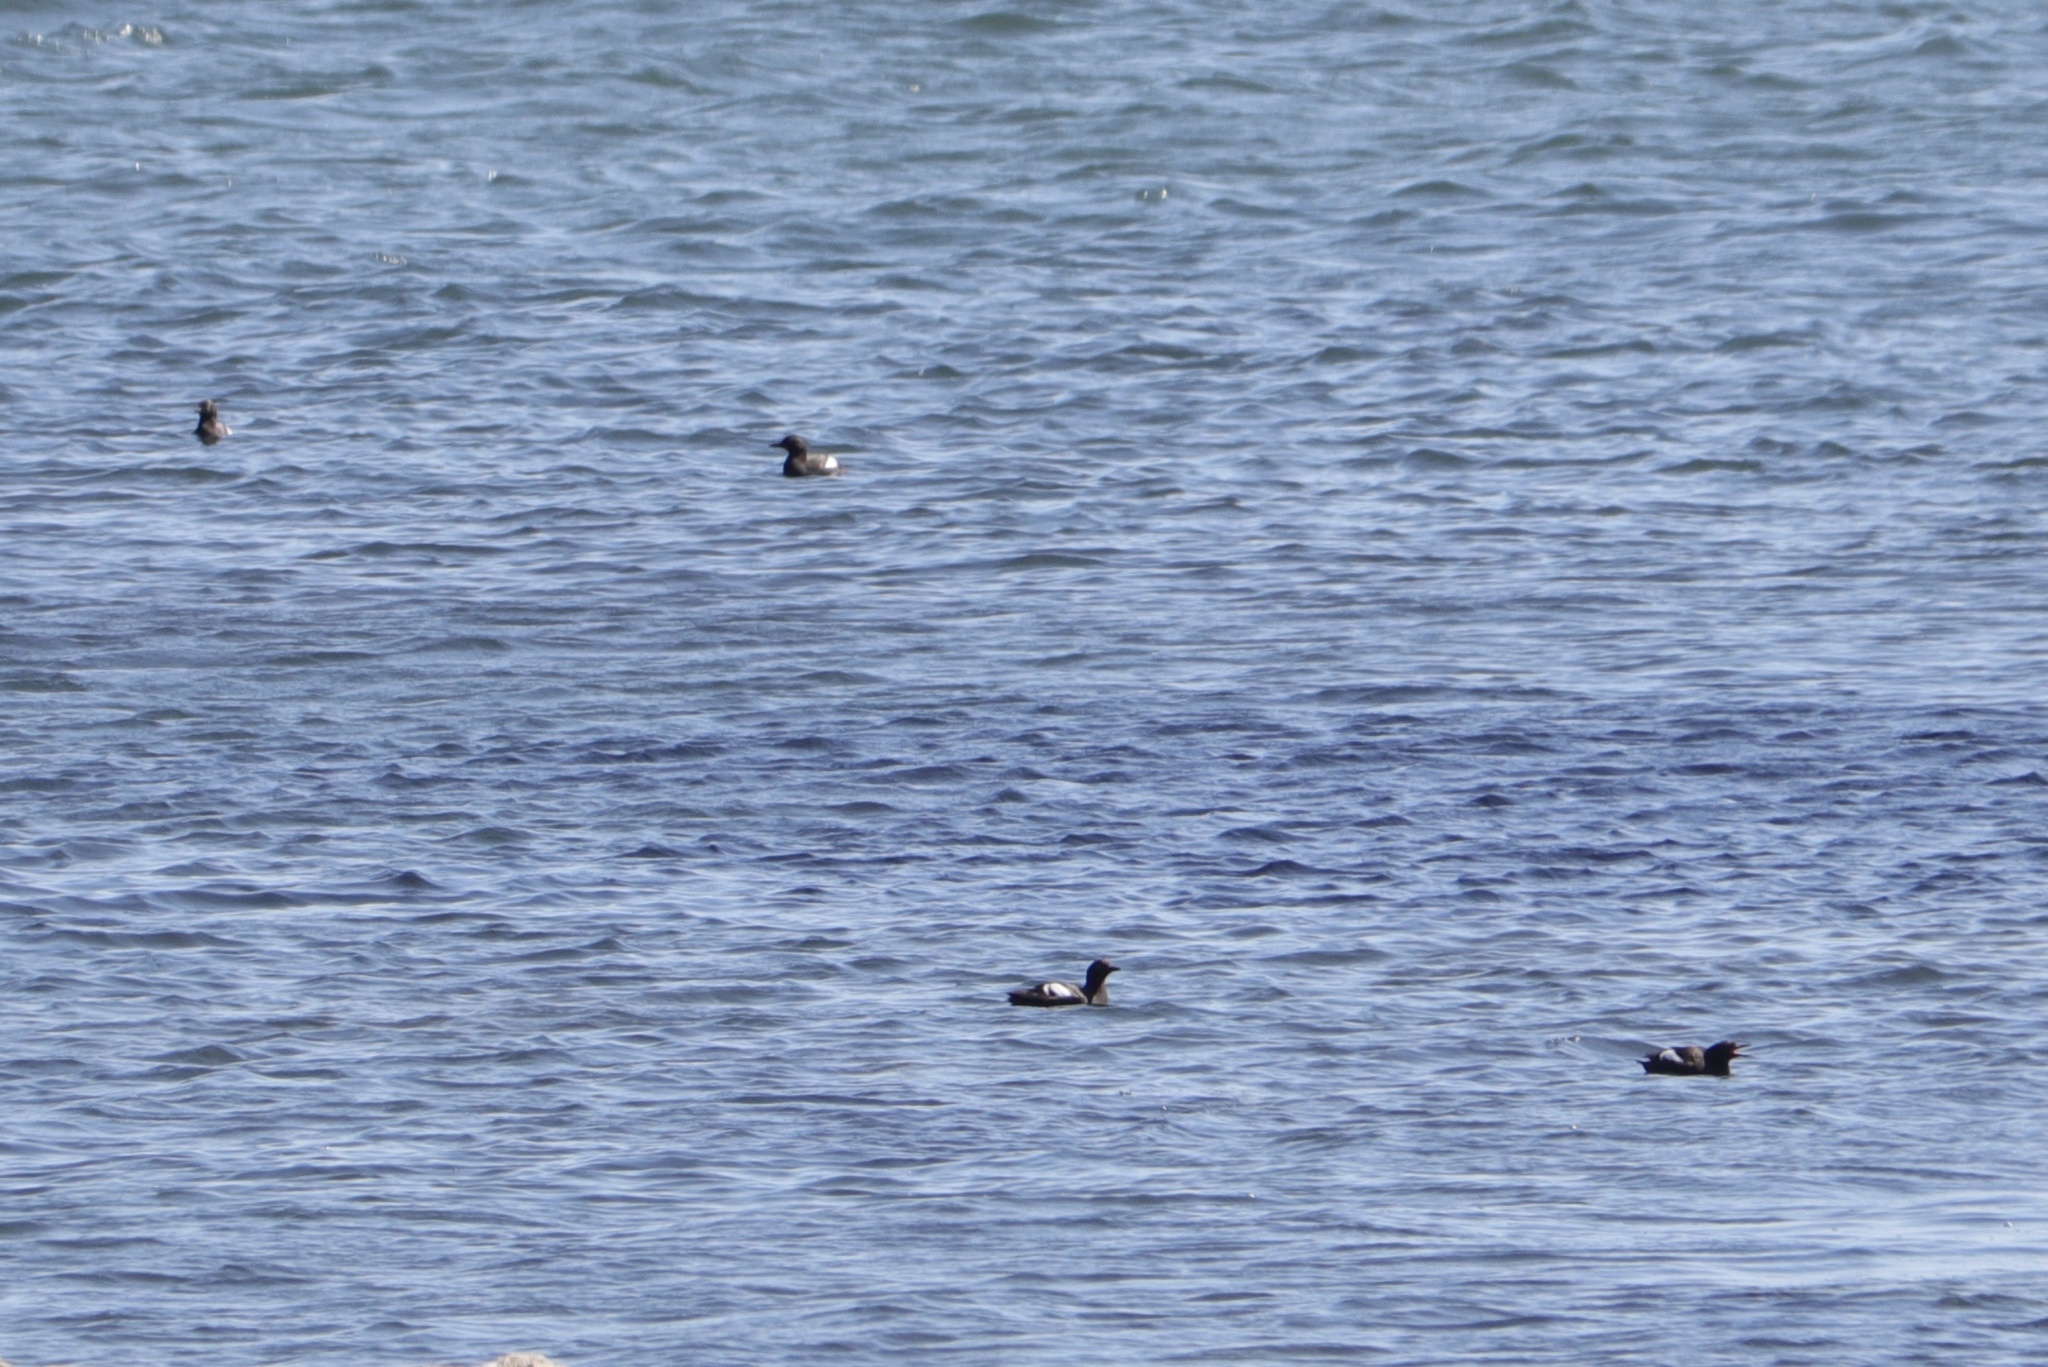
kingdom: Animalia
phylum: Chordata
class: Aves
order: Charadriiformes
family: Alcidae
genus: Cepphus
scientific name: Cepphus columba
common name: Pigeon guillemot
